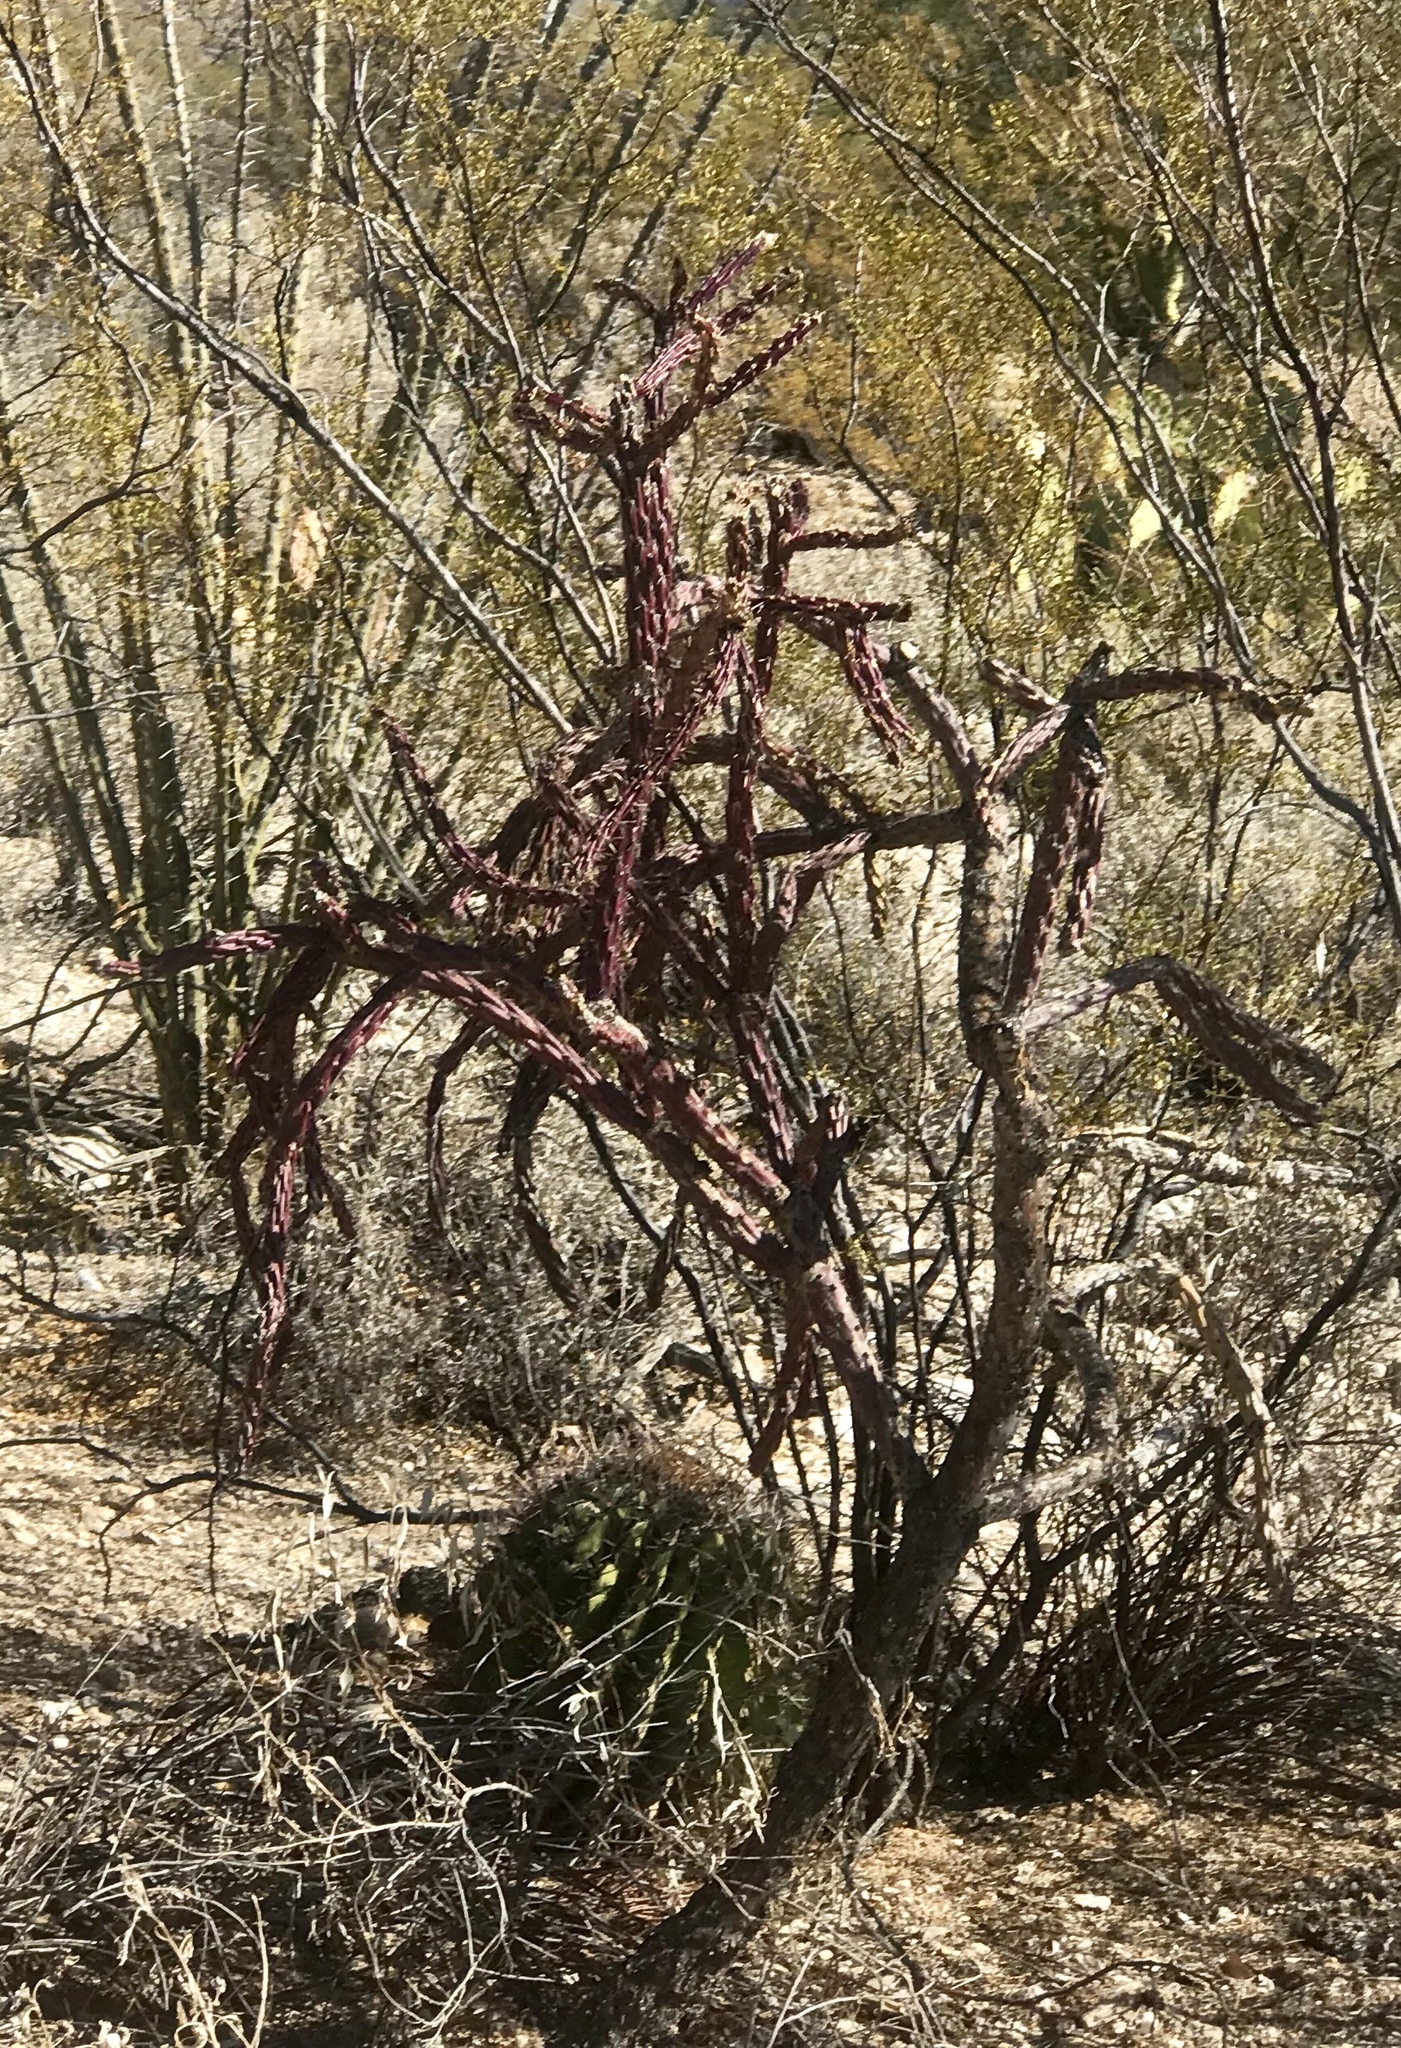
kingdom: Plantae
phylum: Tracheophyta
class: Magnoliopsida
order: Caryophyllales
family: Cactaceae
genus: Cylindropuntia
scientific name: Cylindropuntia thurberi
